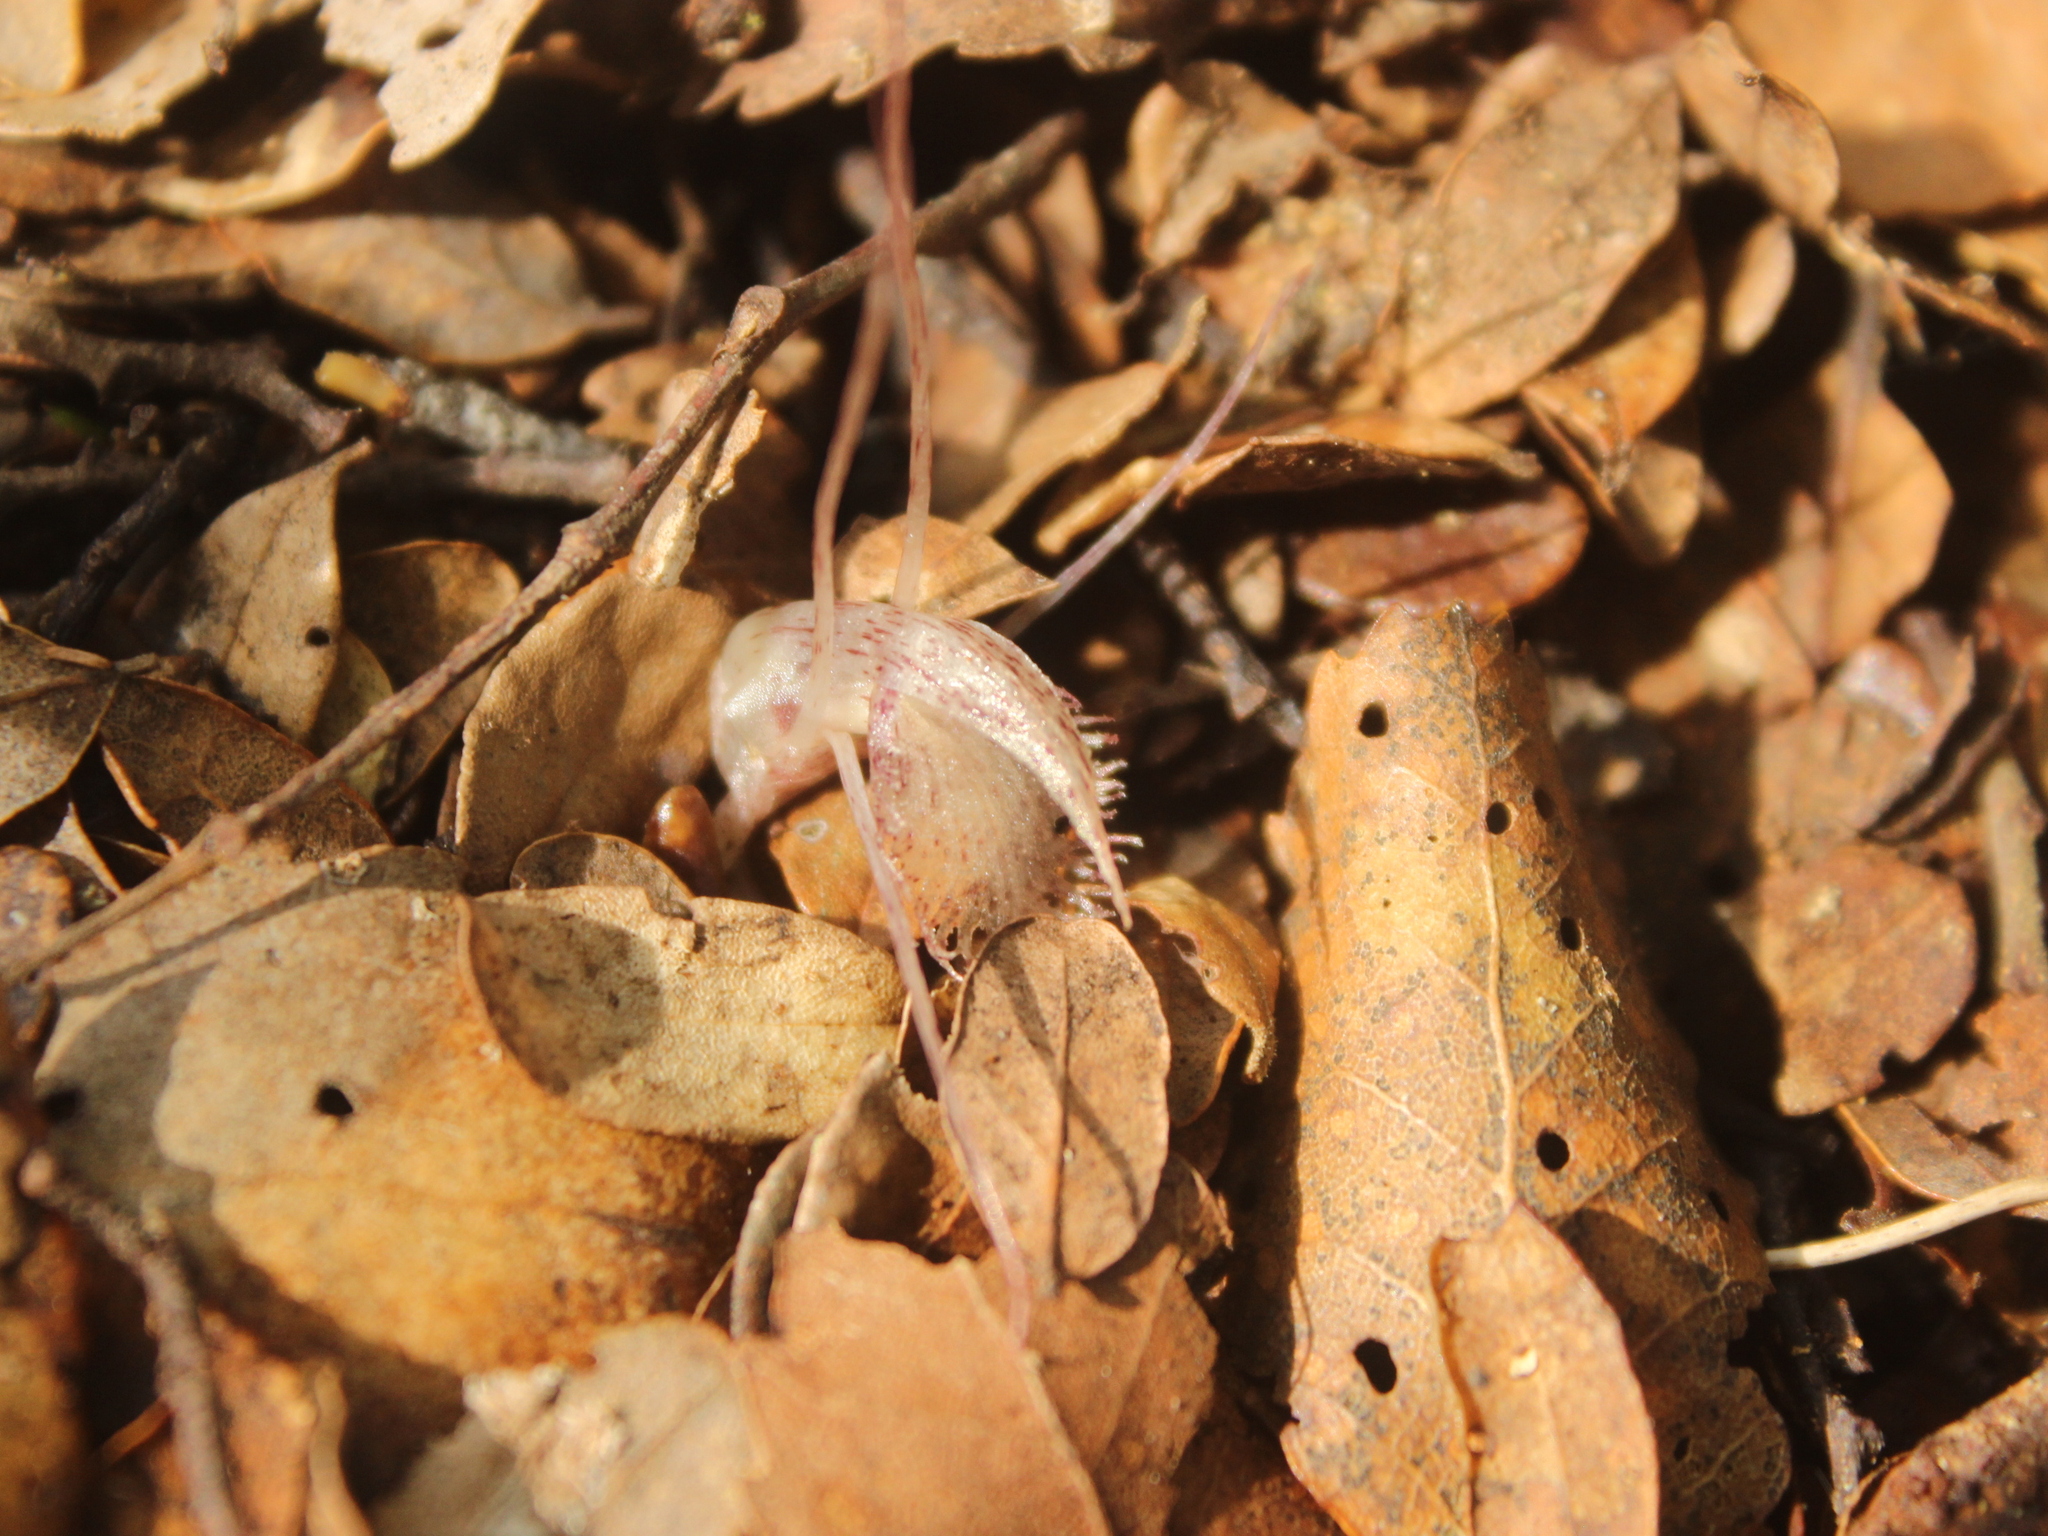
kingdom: Plantae
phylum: Tracheophyta
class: Liliopsida
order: Asparagales
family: Orchidaceae
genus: Corybas
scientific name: Corybas cryptanthus
